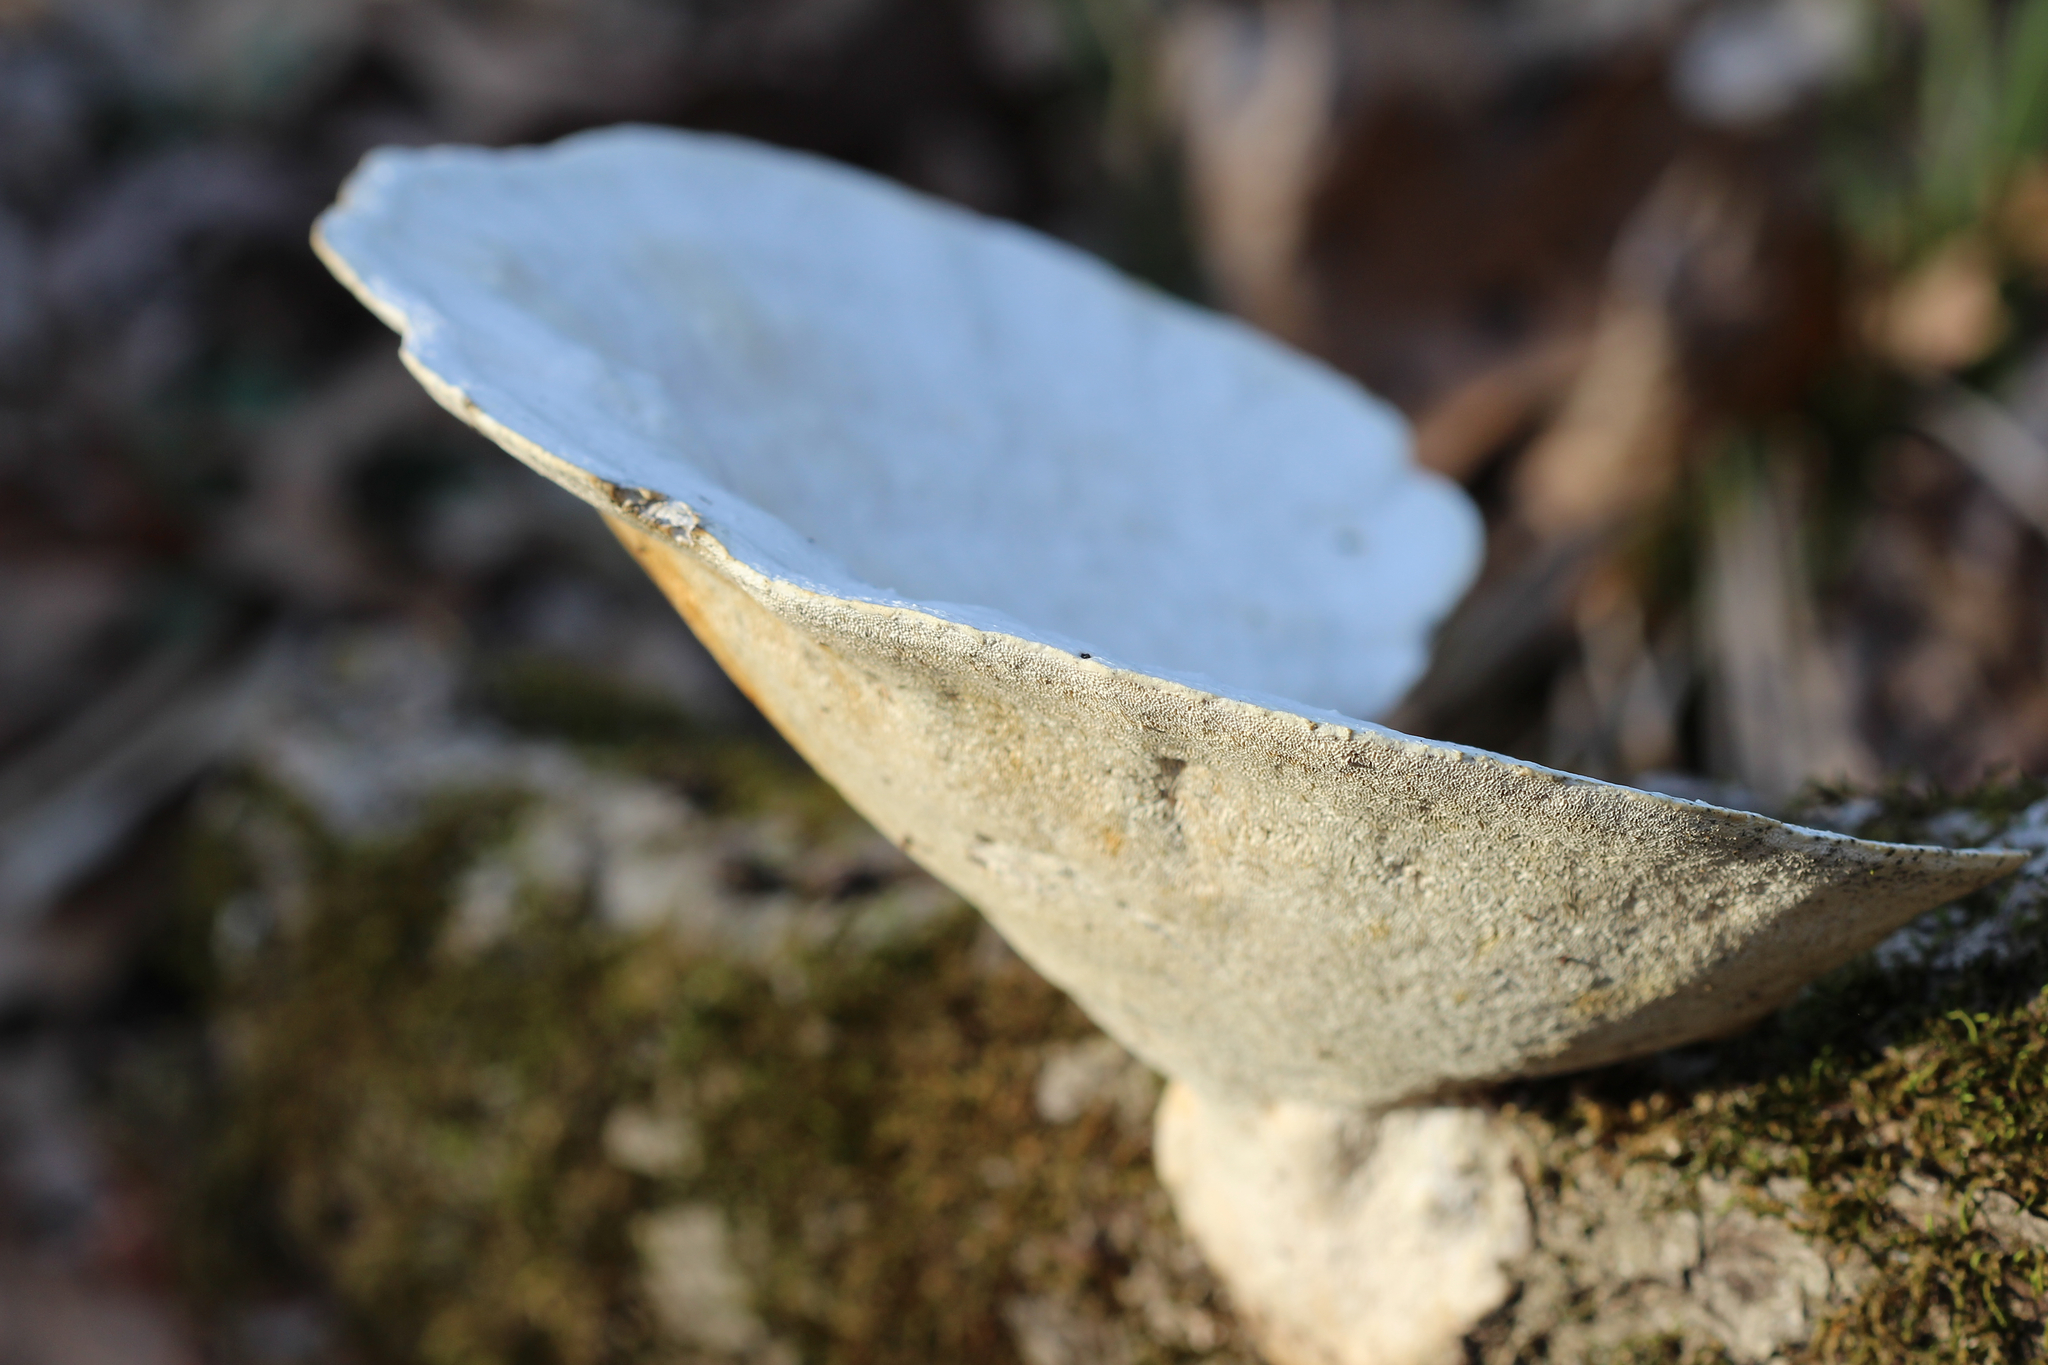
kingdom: Fungi
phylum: Basidiomycota
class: Agaricomycetes
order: Polyporales
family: Polyporaceae
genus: Trametes
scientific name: Trametes
